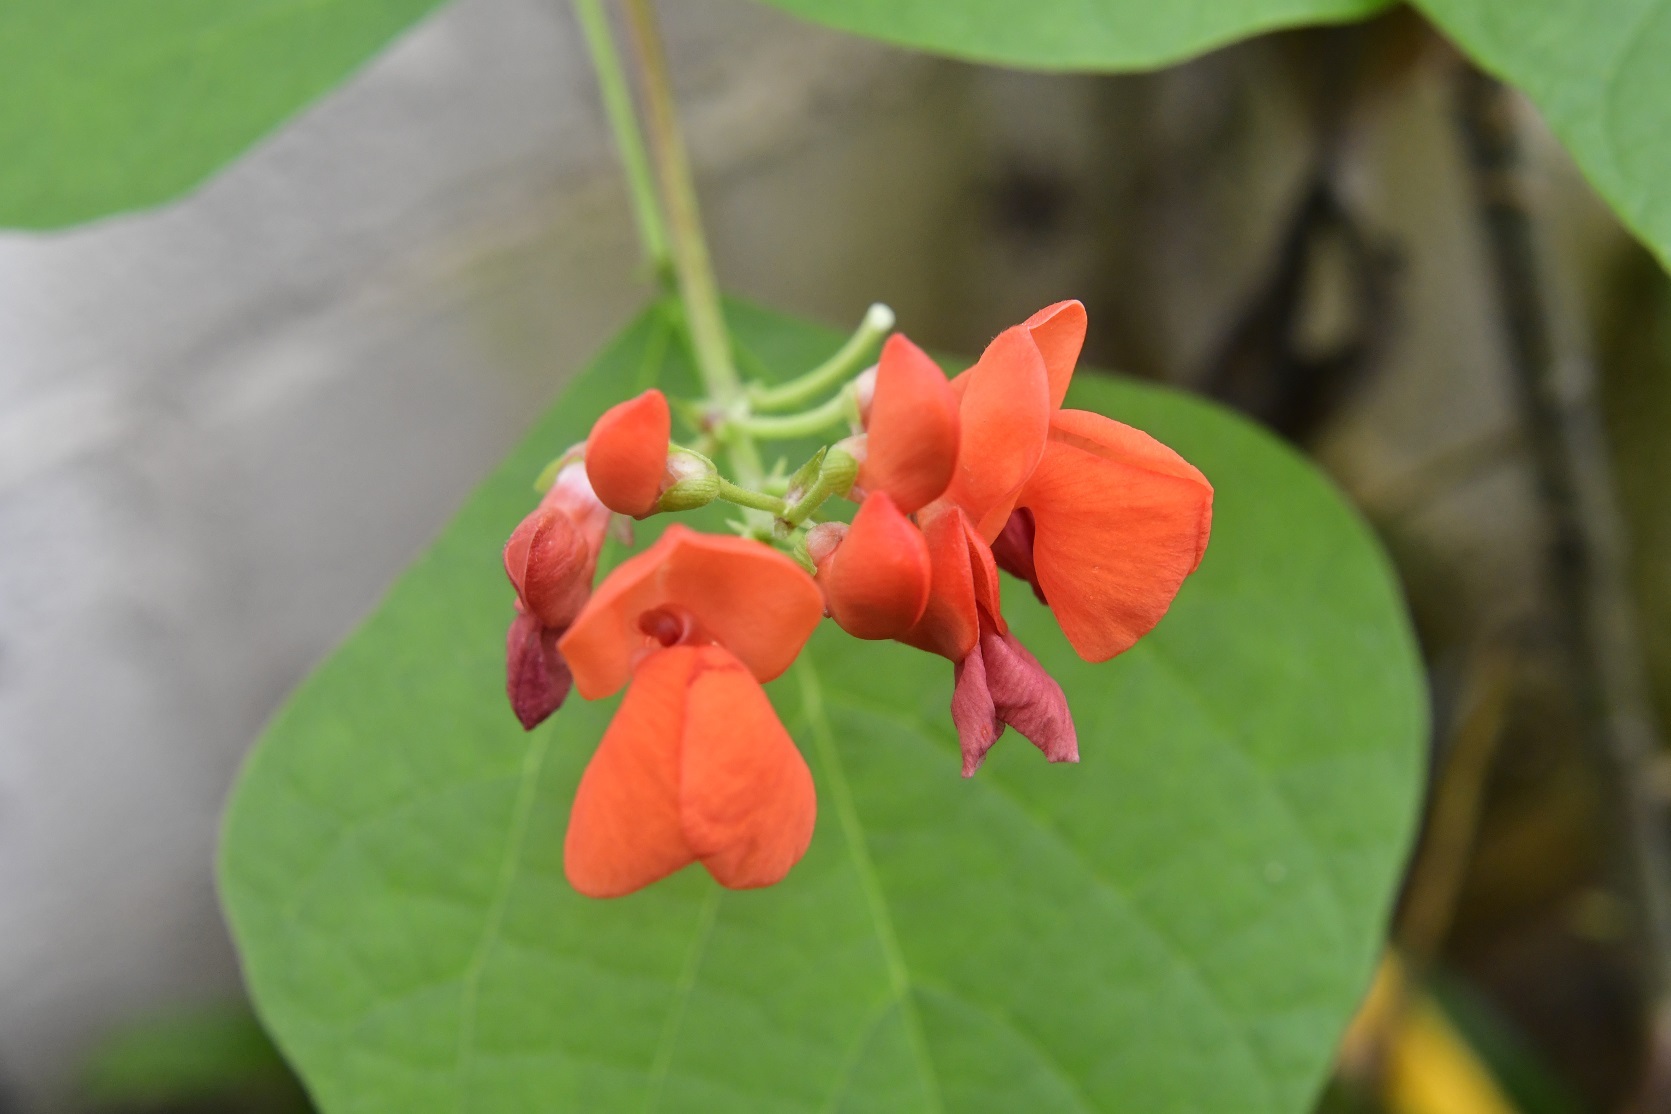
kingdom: Plantae
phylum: Tracheophyta
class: Magnoliopsida
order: Fabales
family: Fabaceae
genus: Phaseolus
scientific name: Phaseolus coccineus
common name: Runner bean
